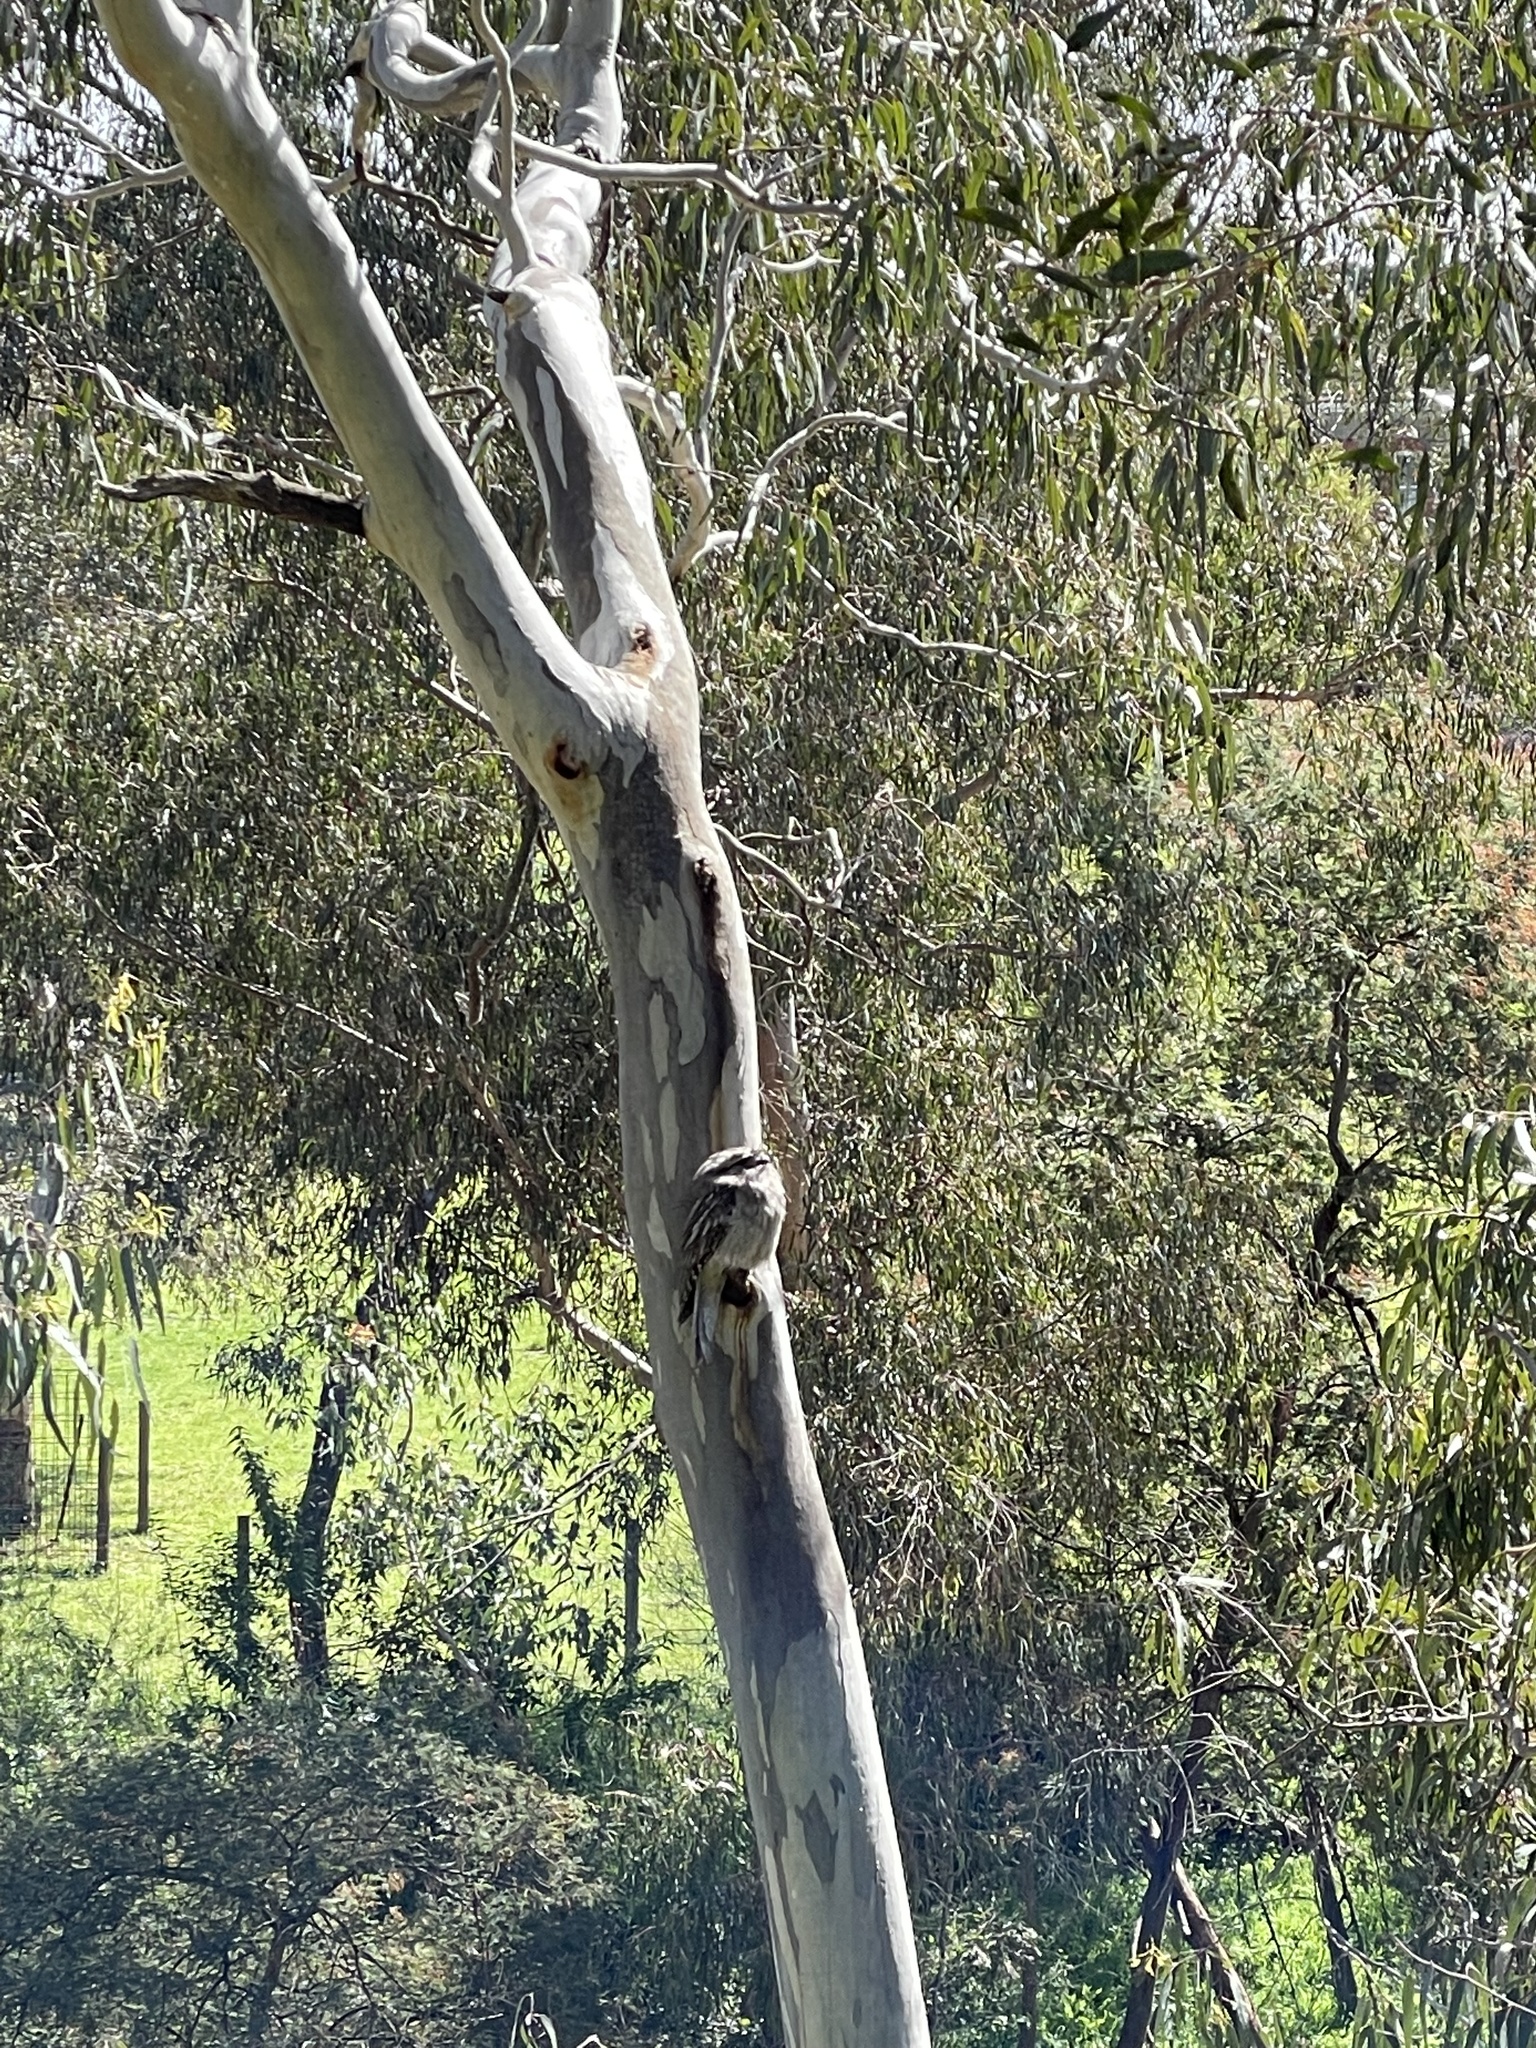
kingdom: Animalia
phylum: Chordata
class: Aves
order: Caprimulgiformes
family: Podargidae
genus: Podargus
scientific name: Podargus strigoides
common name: Tawny frogmouth
